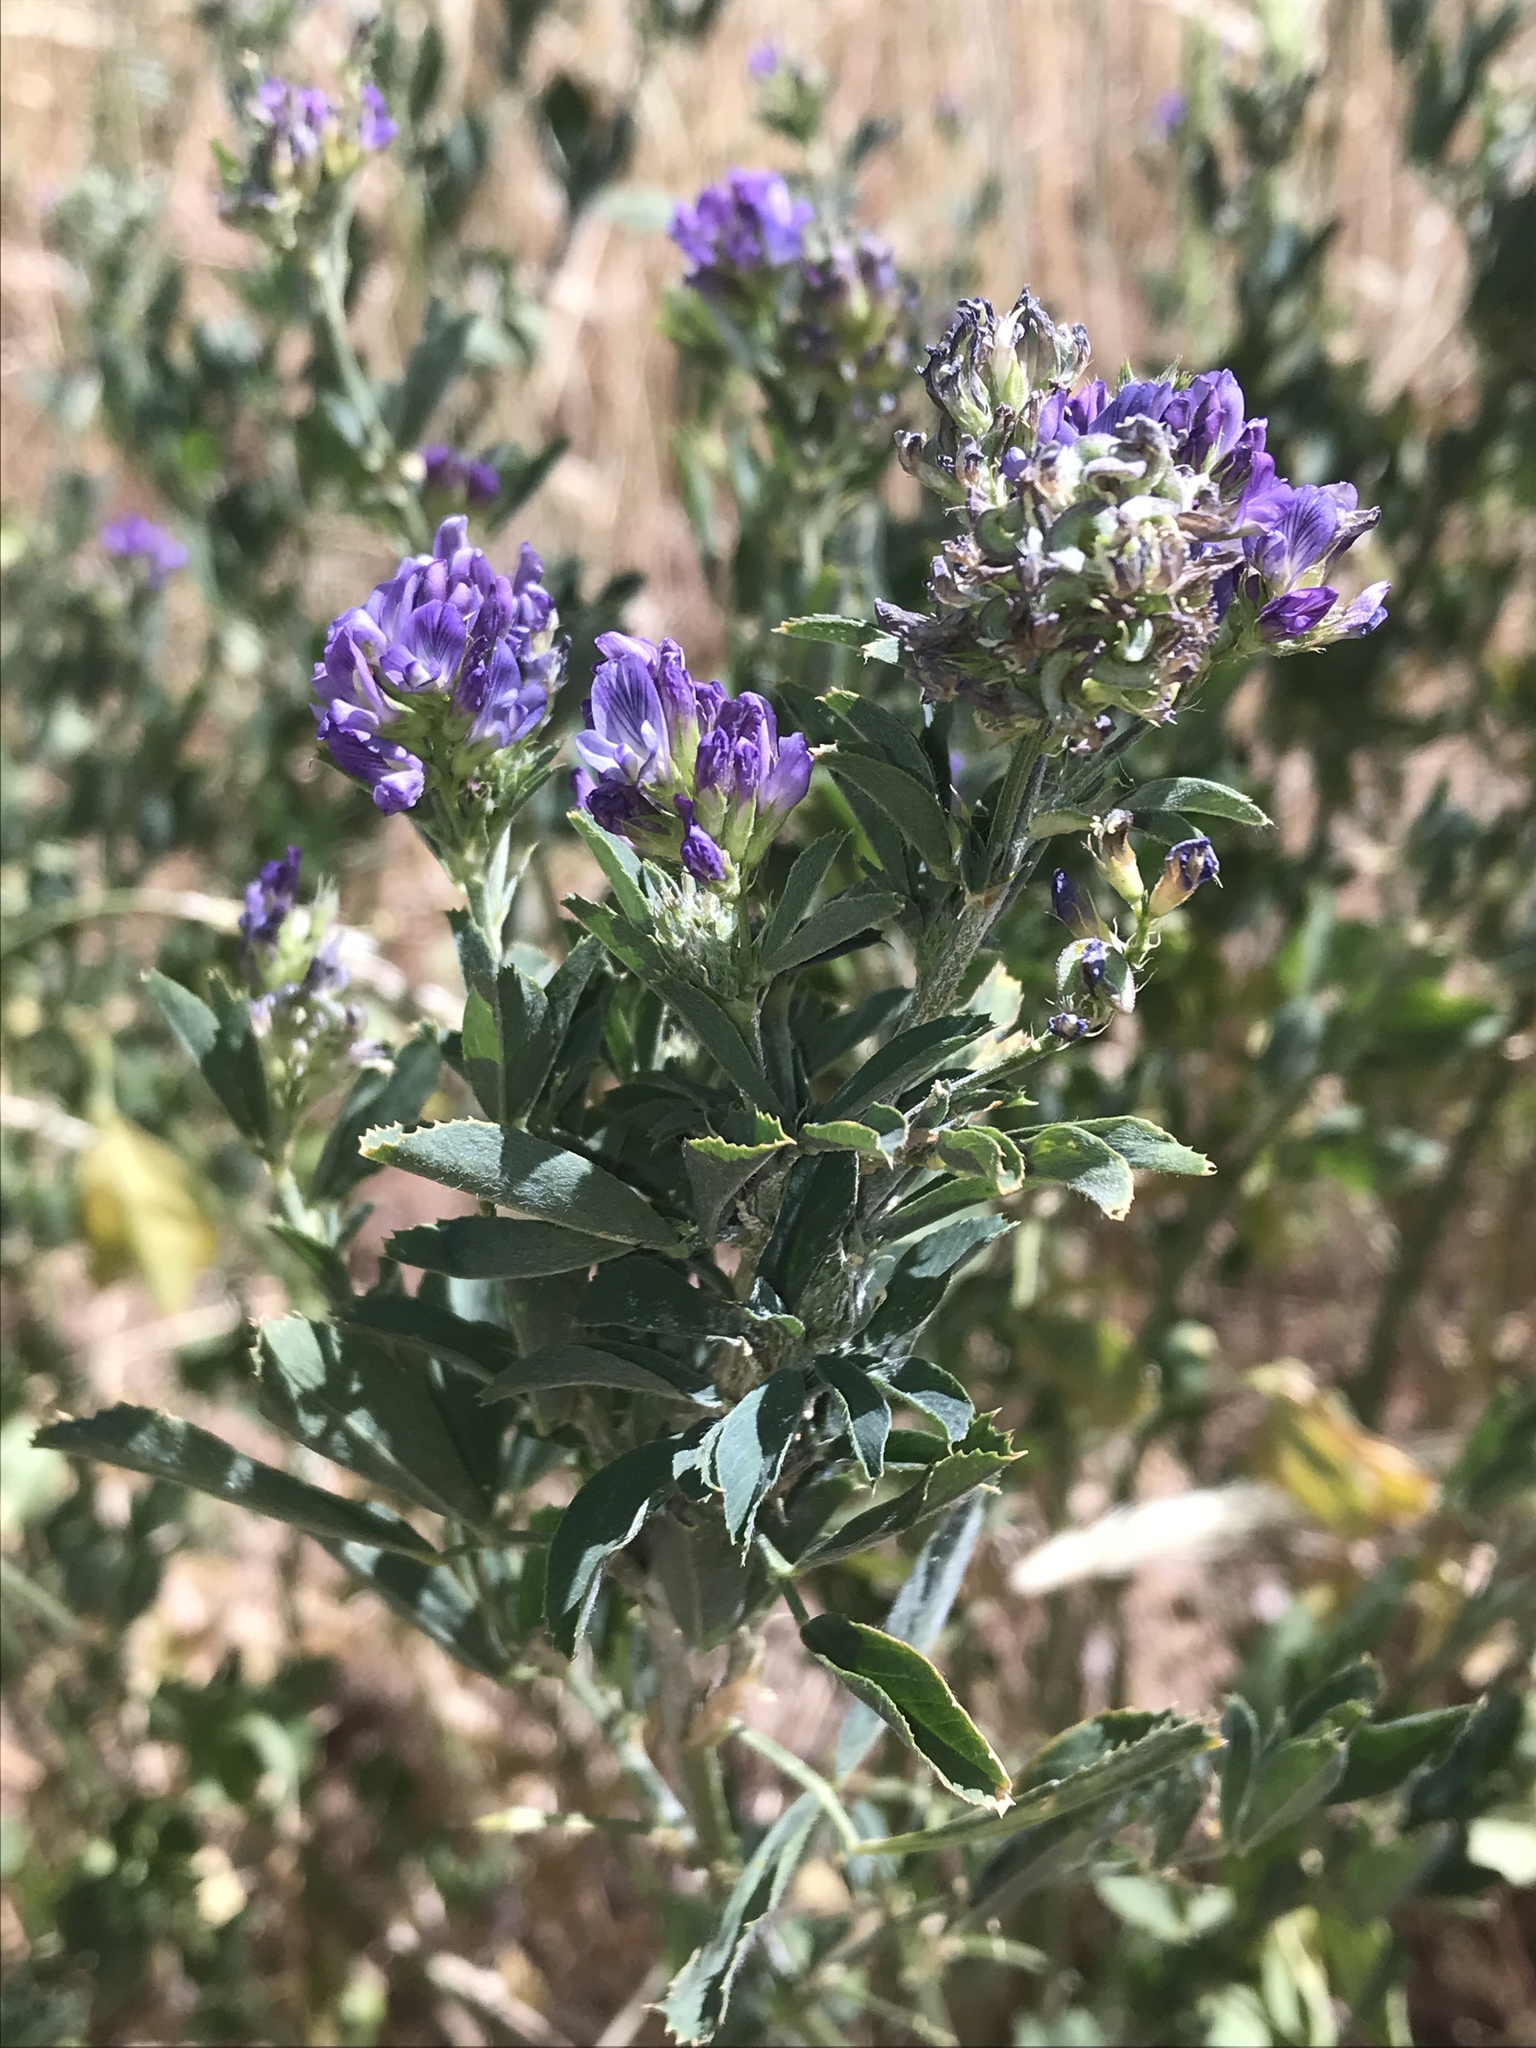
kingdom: Plantae
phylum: Tracheophyta
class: Magnoliopsida
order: Fabales
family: Fabaceae
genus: Medicago
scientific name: Medicago sativa
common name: Alfalfa
